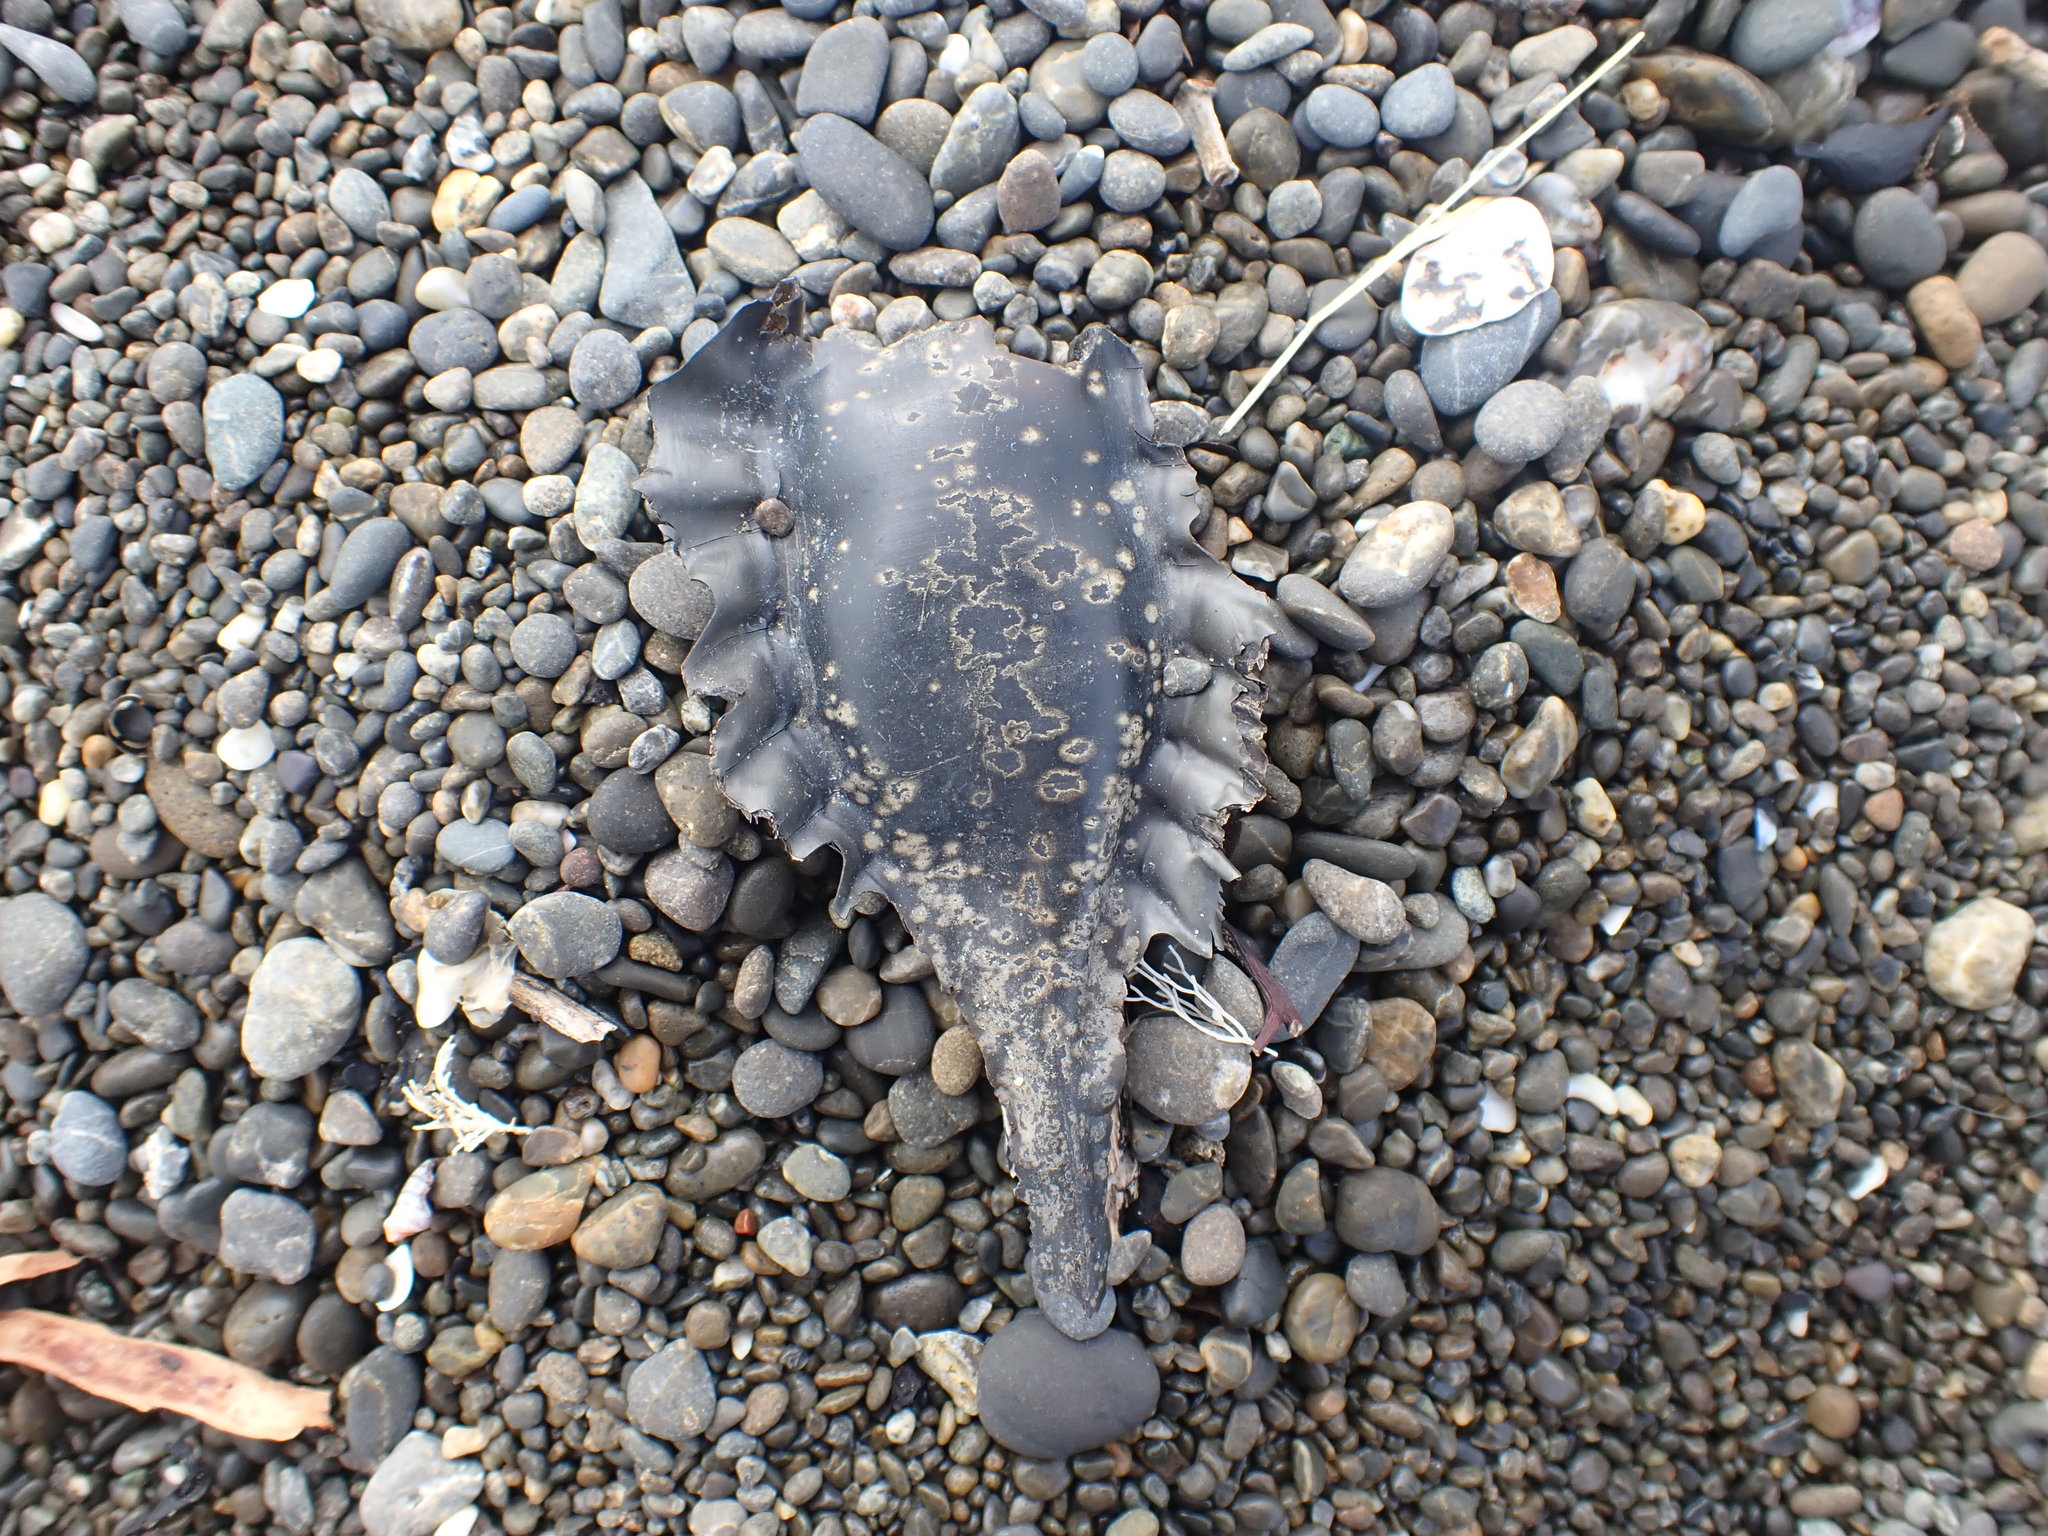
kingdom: Animalia
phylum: Chordata
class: Holocephali
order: Chimaeriformes
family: Callorhinchidae
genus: Callorhinchus
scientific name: Callorhinchus milii
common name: Elephant fish
